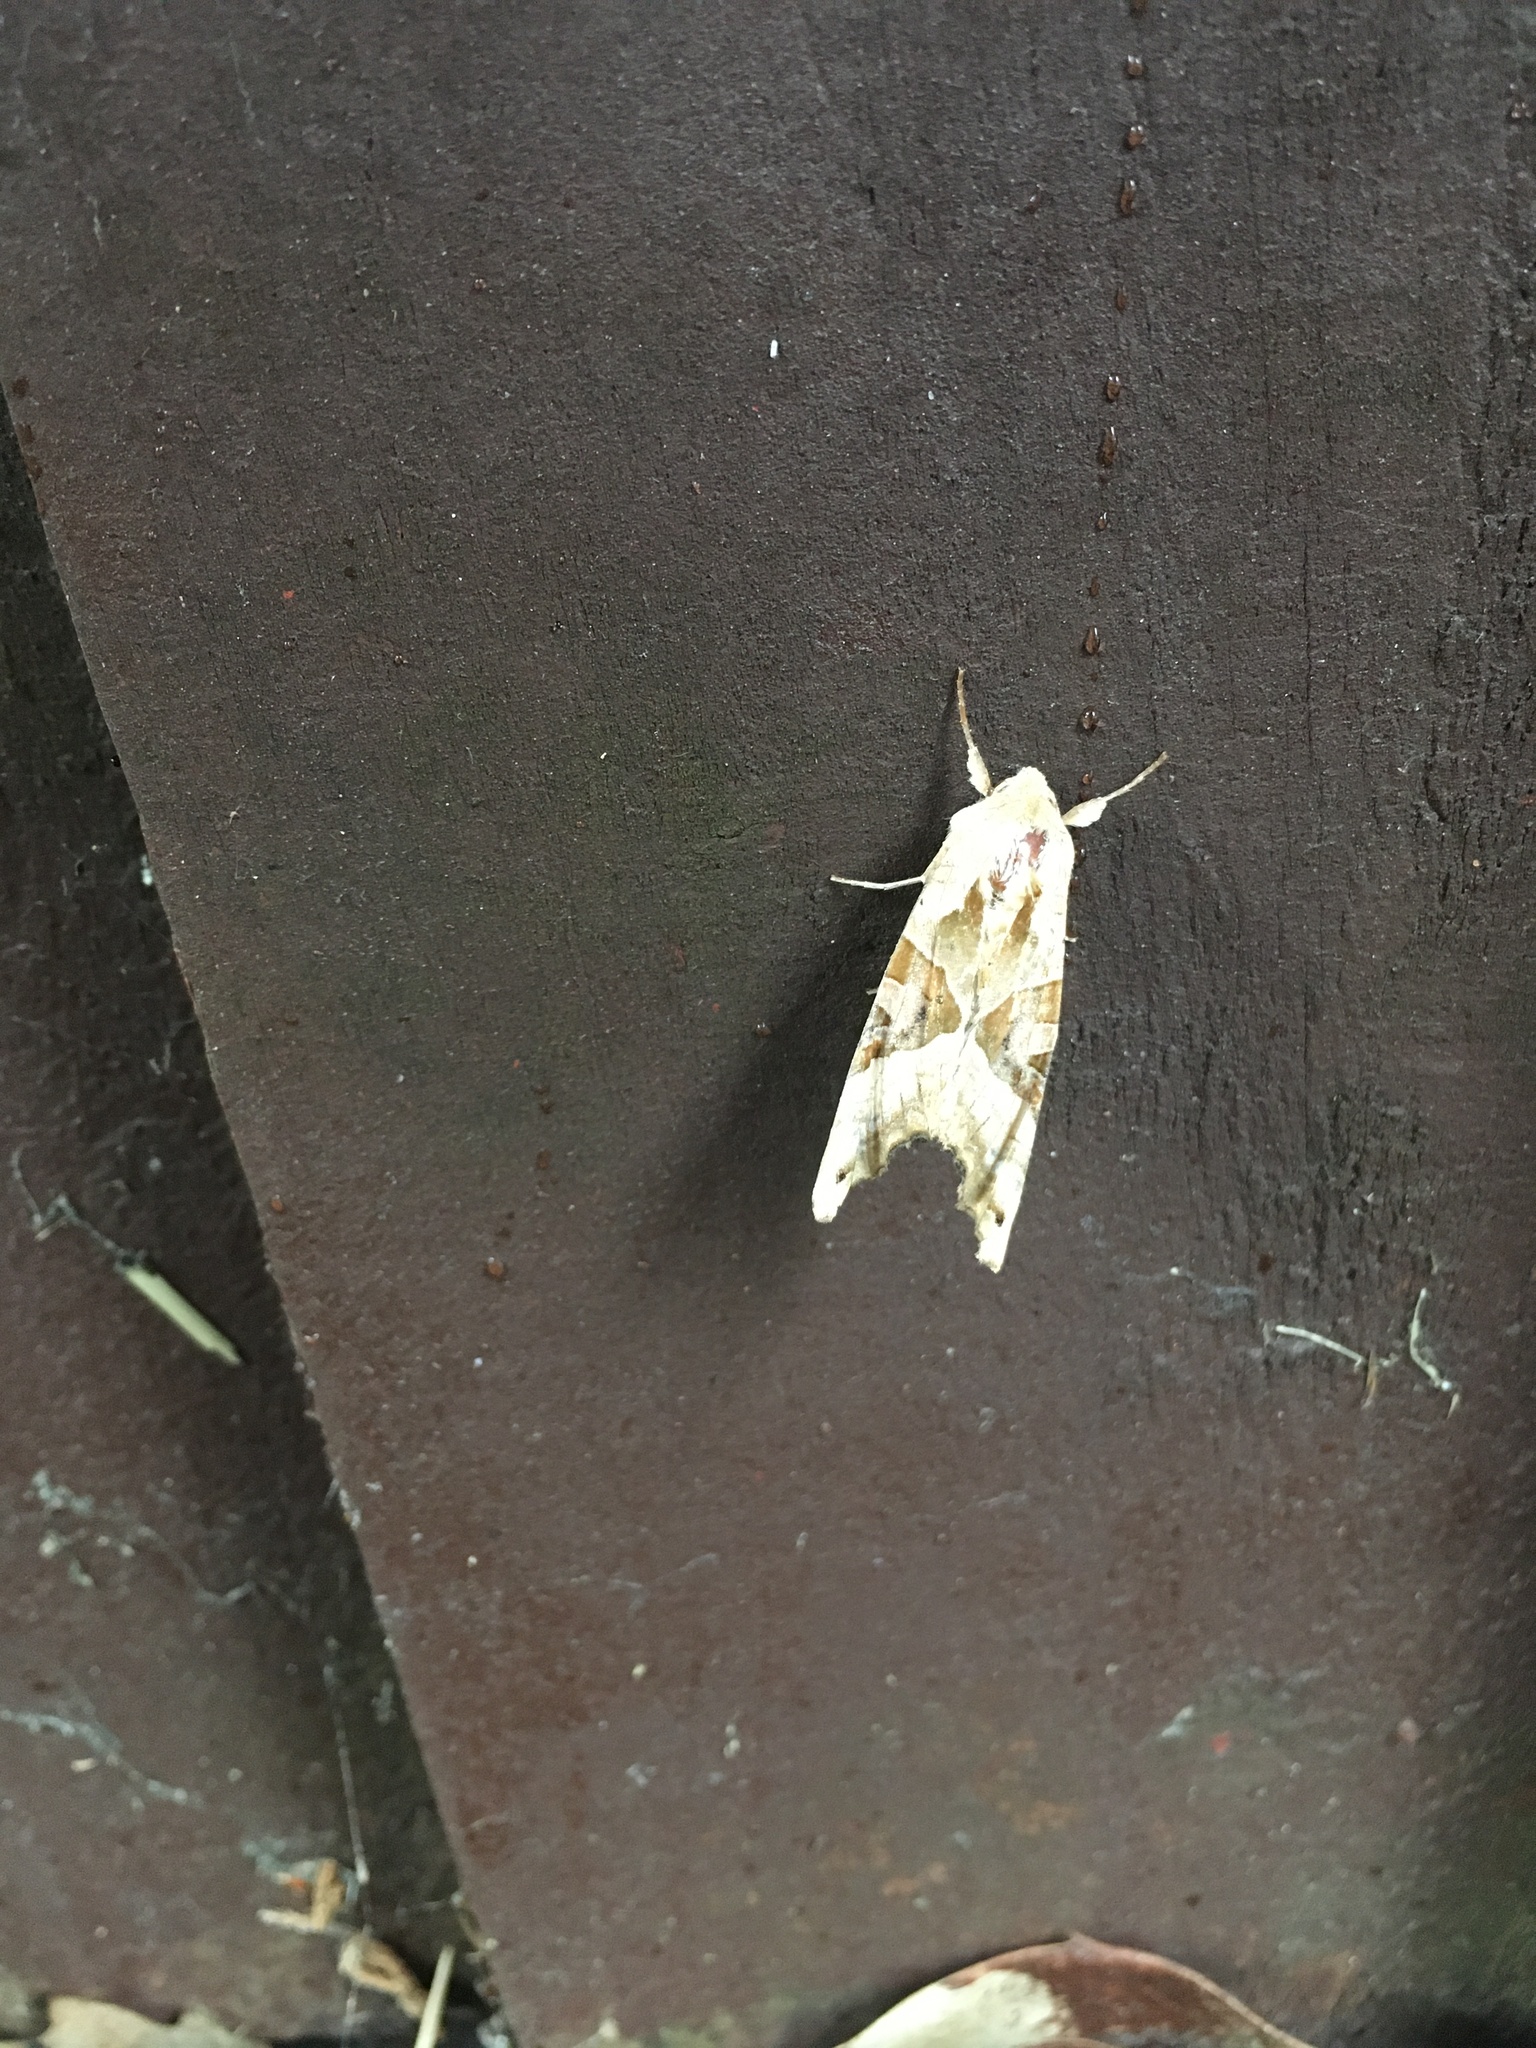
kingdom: Animalia
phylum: Arthropoda
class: Insecta
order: Lepidoptera
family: Noctuidae
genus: Phlogophora
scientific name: Phlogophora meticulosa
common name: Angle shades
